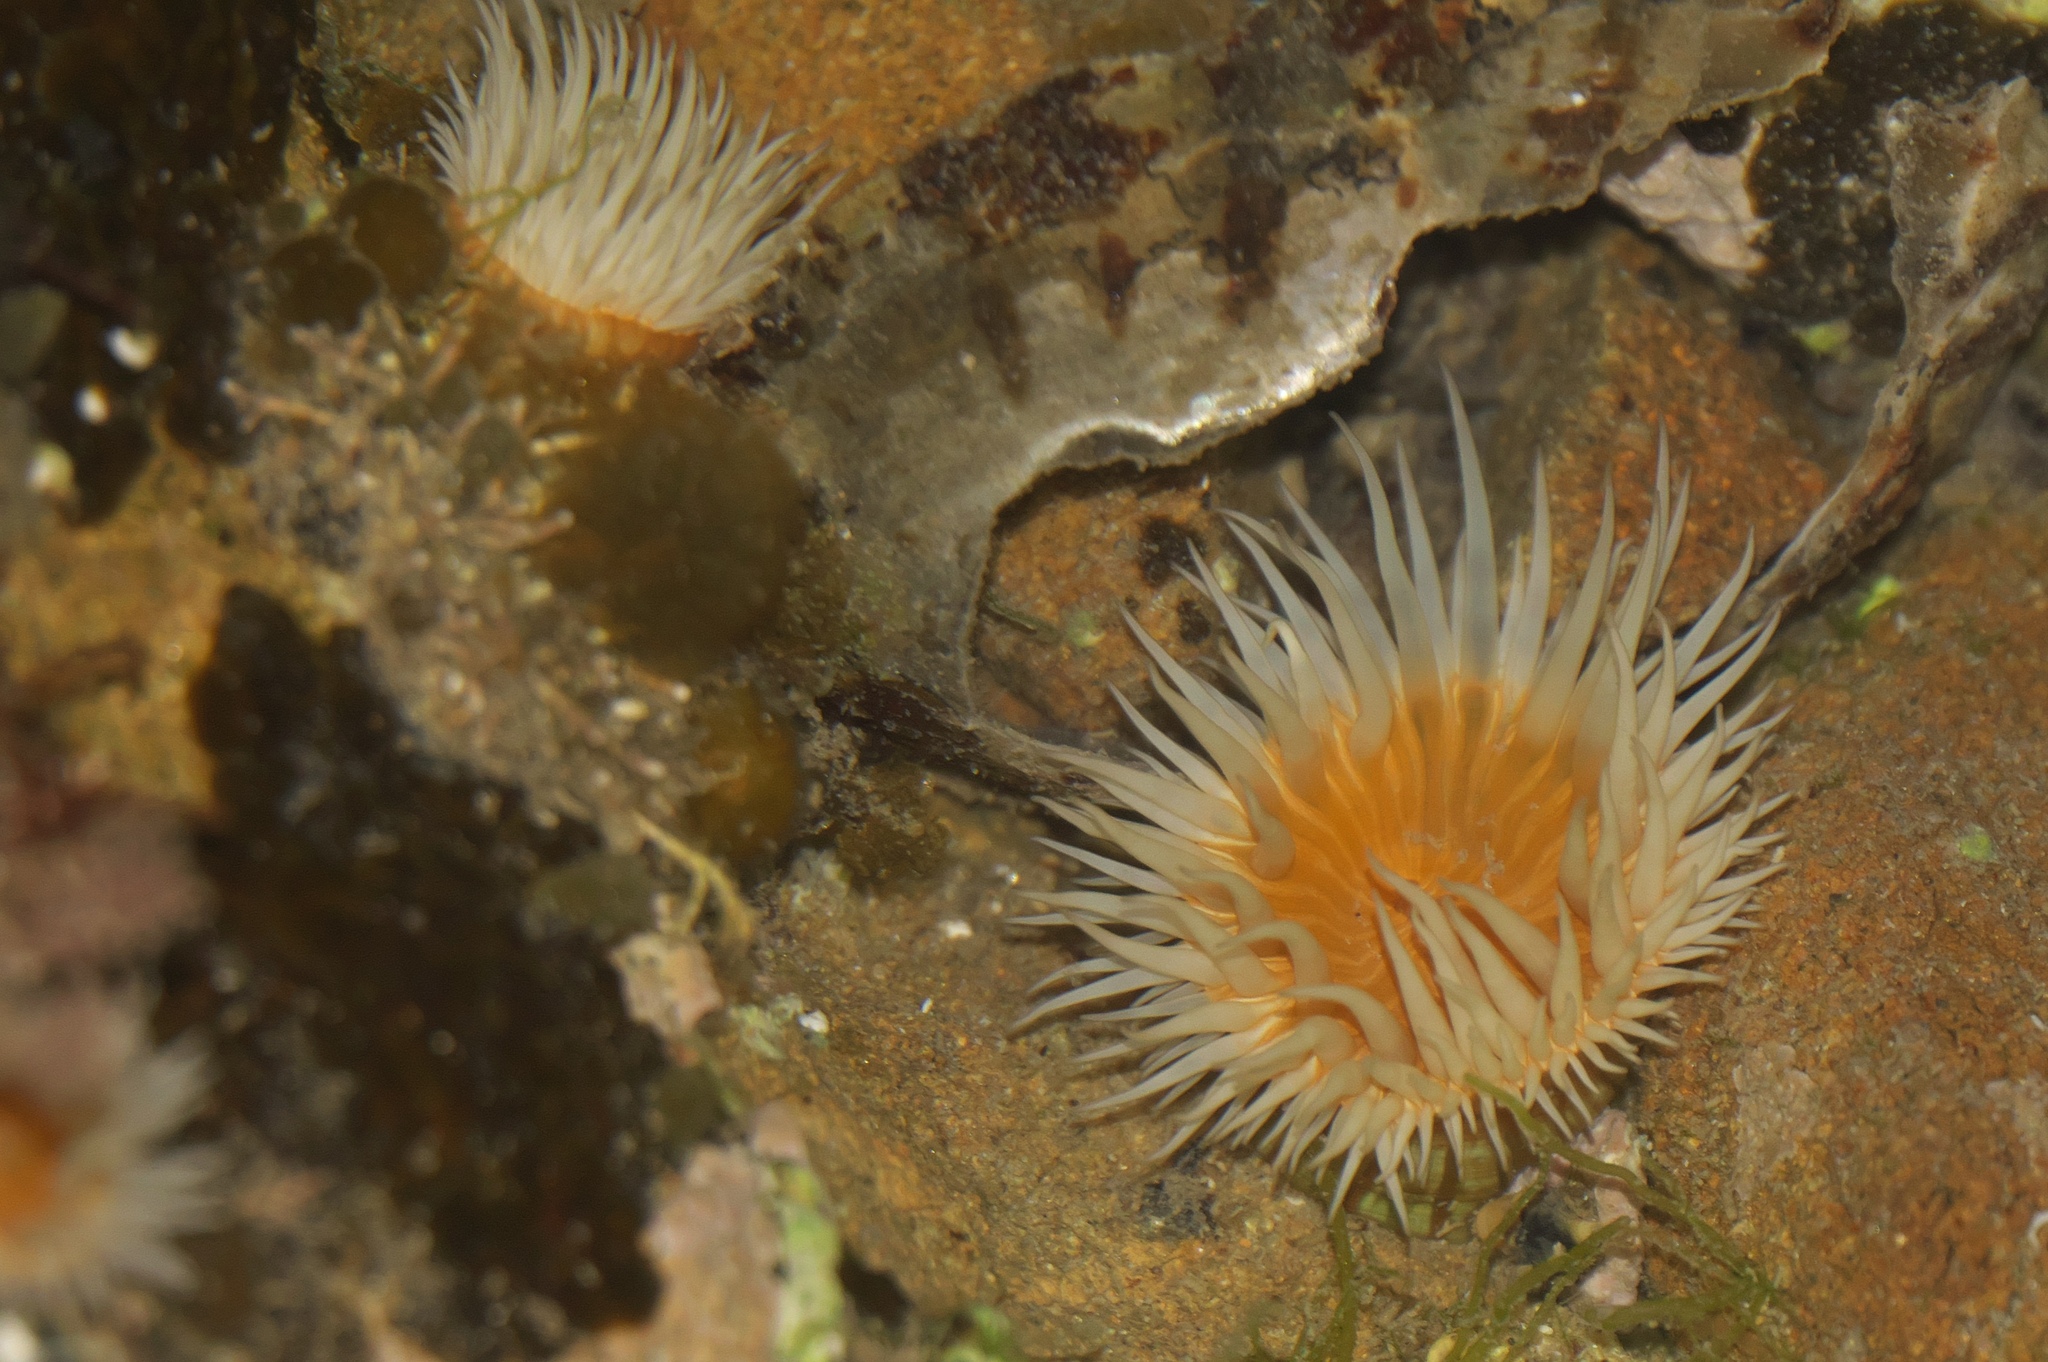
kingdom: Animalia
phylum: Cnidaria
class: Anthozoa
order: Actiniaria
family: Sagartiidae
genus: Anthothoe
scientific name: Anthothoe albocincta
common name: Orange striped anemone
